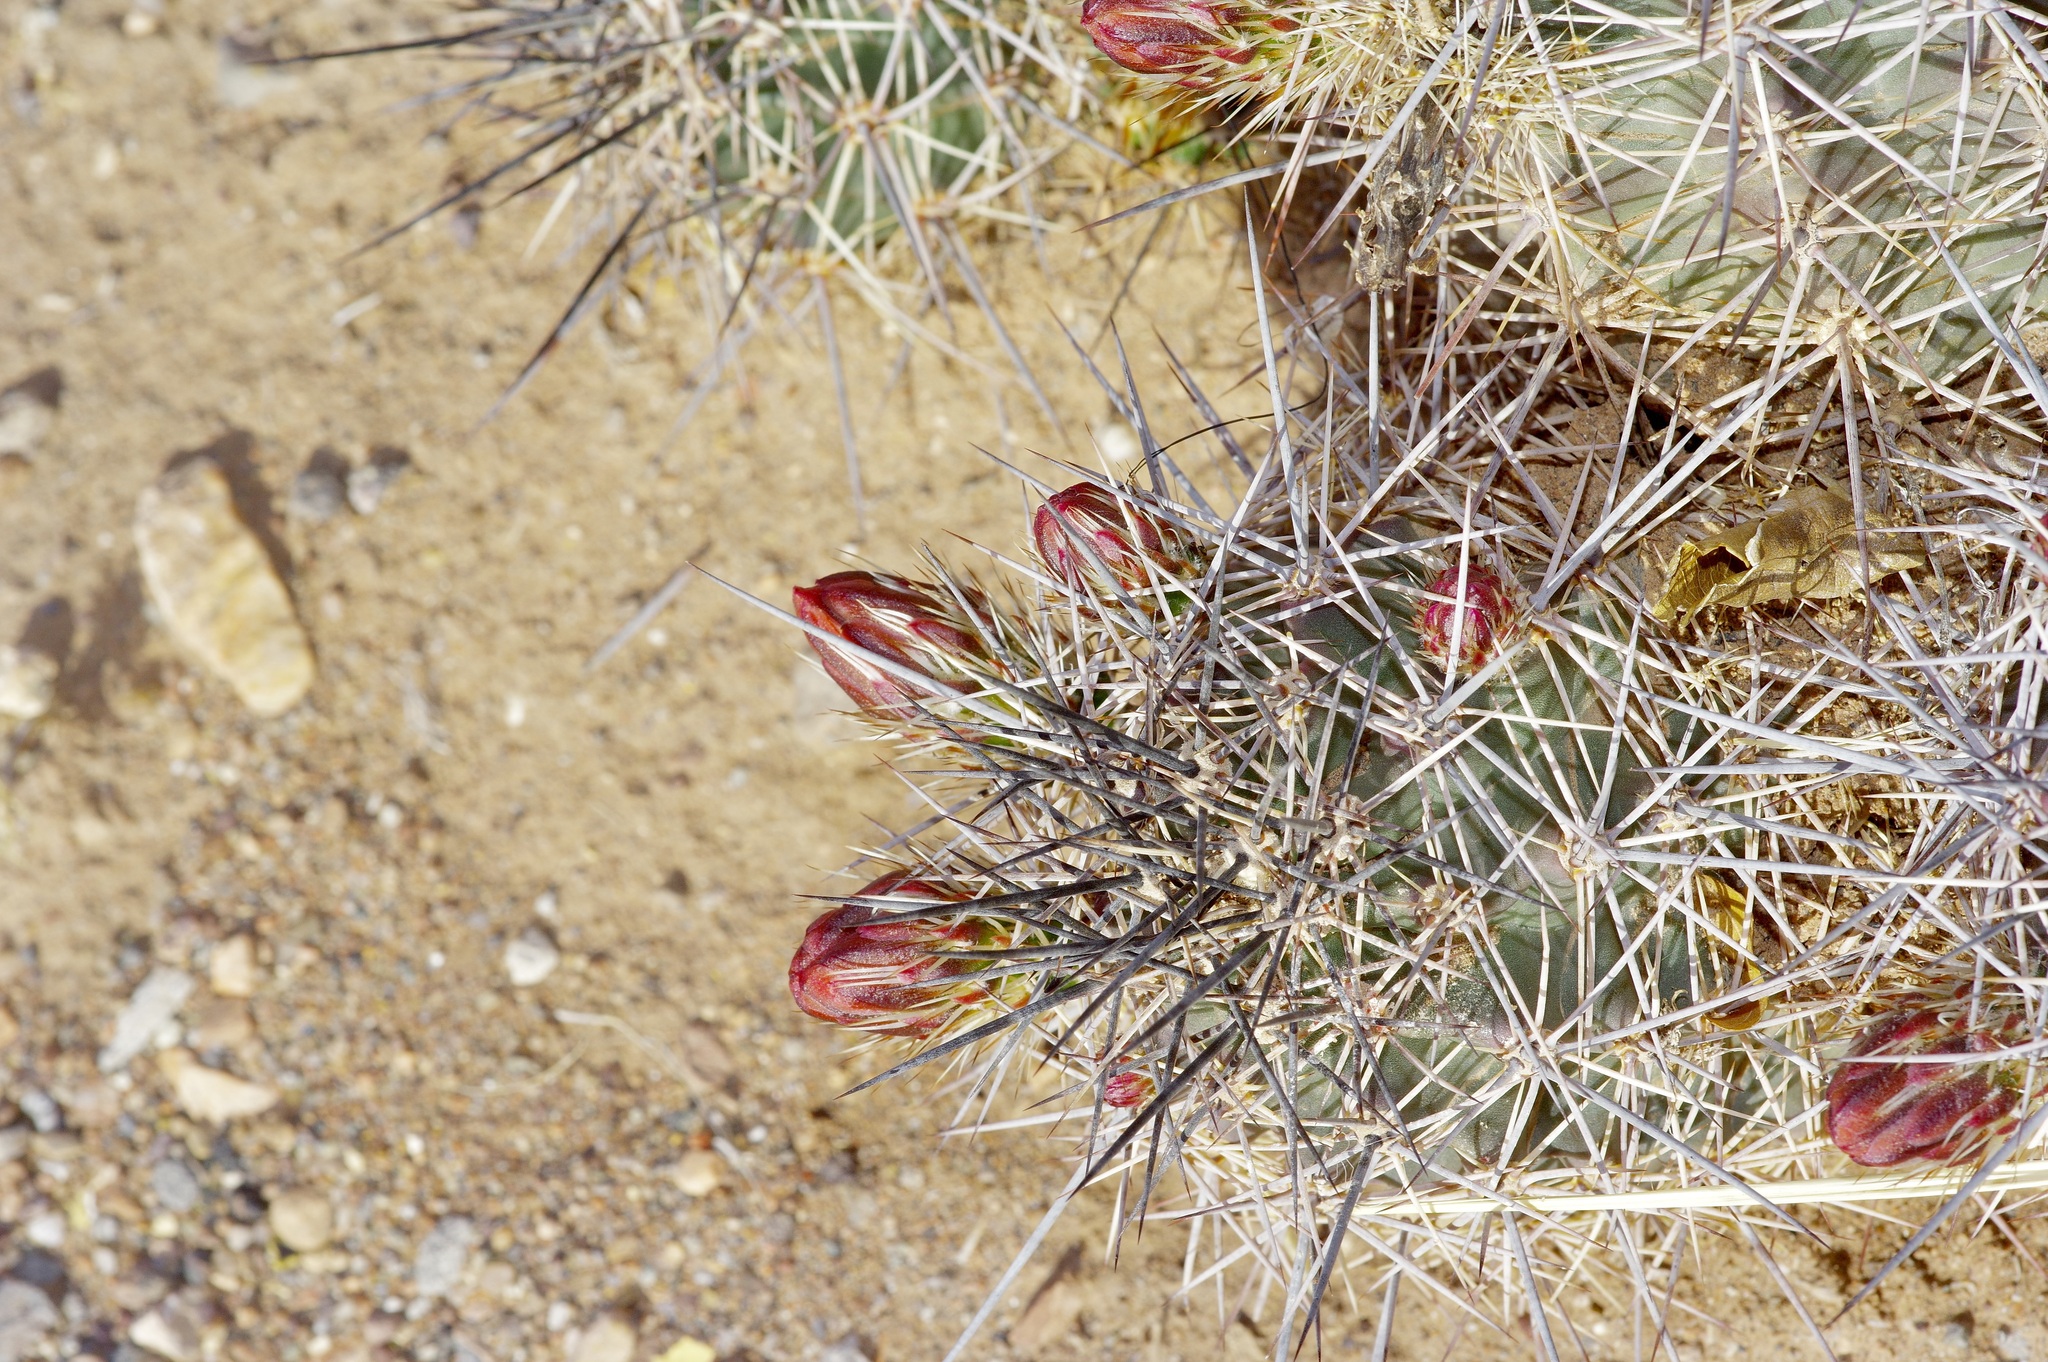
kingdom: Plantae
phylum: Tracheophyta
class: Magnoliopsida
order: Caryophyllales
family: Cactaceae
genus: Echinocereus
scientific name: Echinocereus coccineus
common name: Scarlet hedgehog cactus
